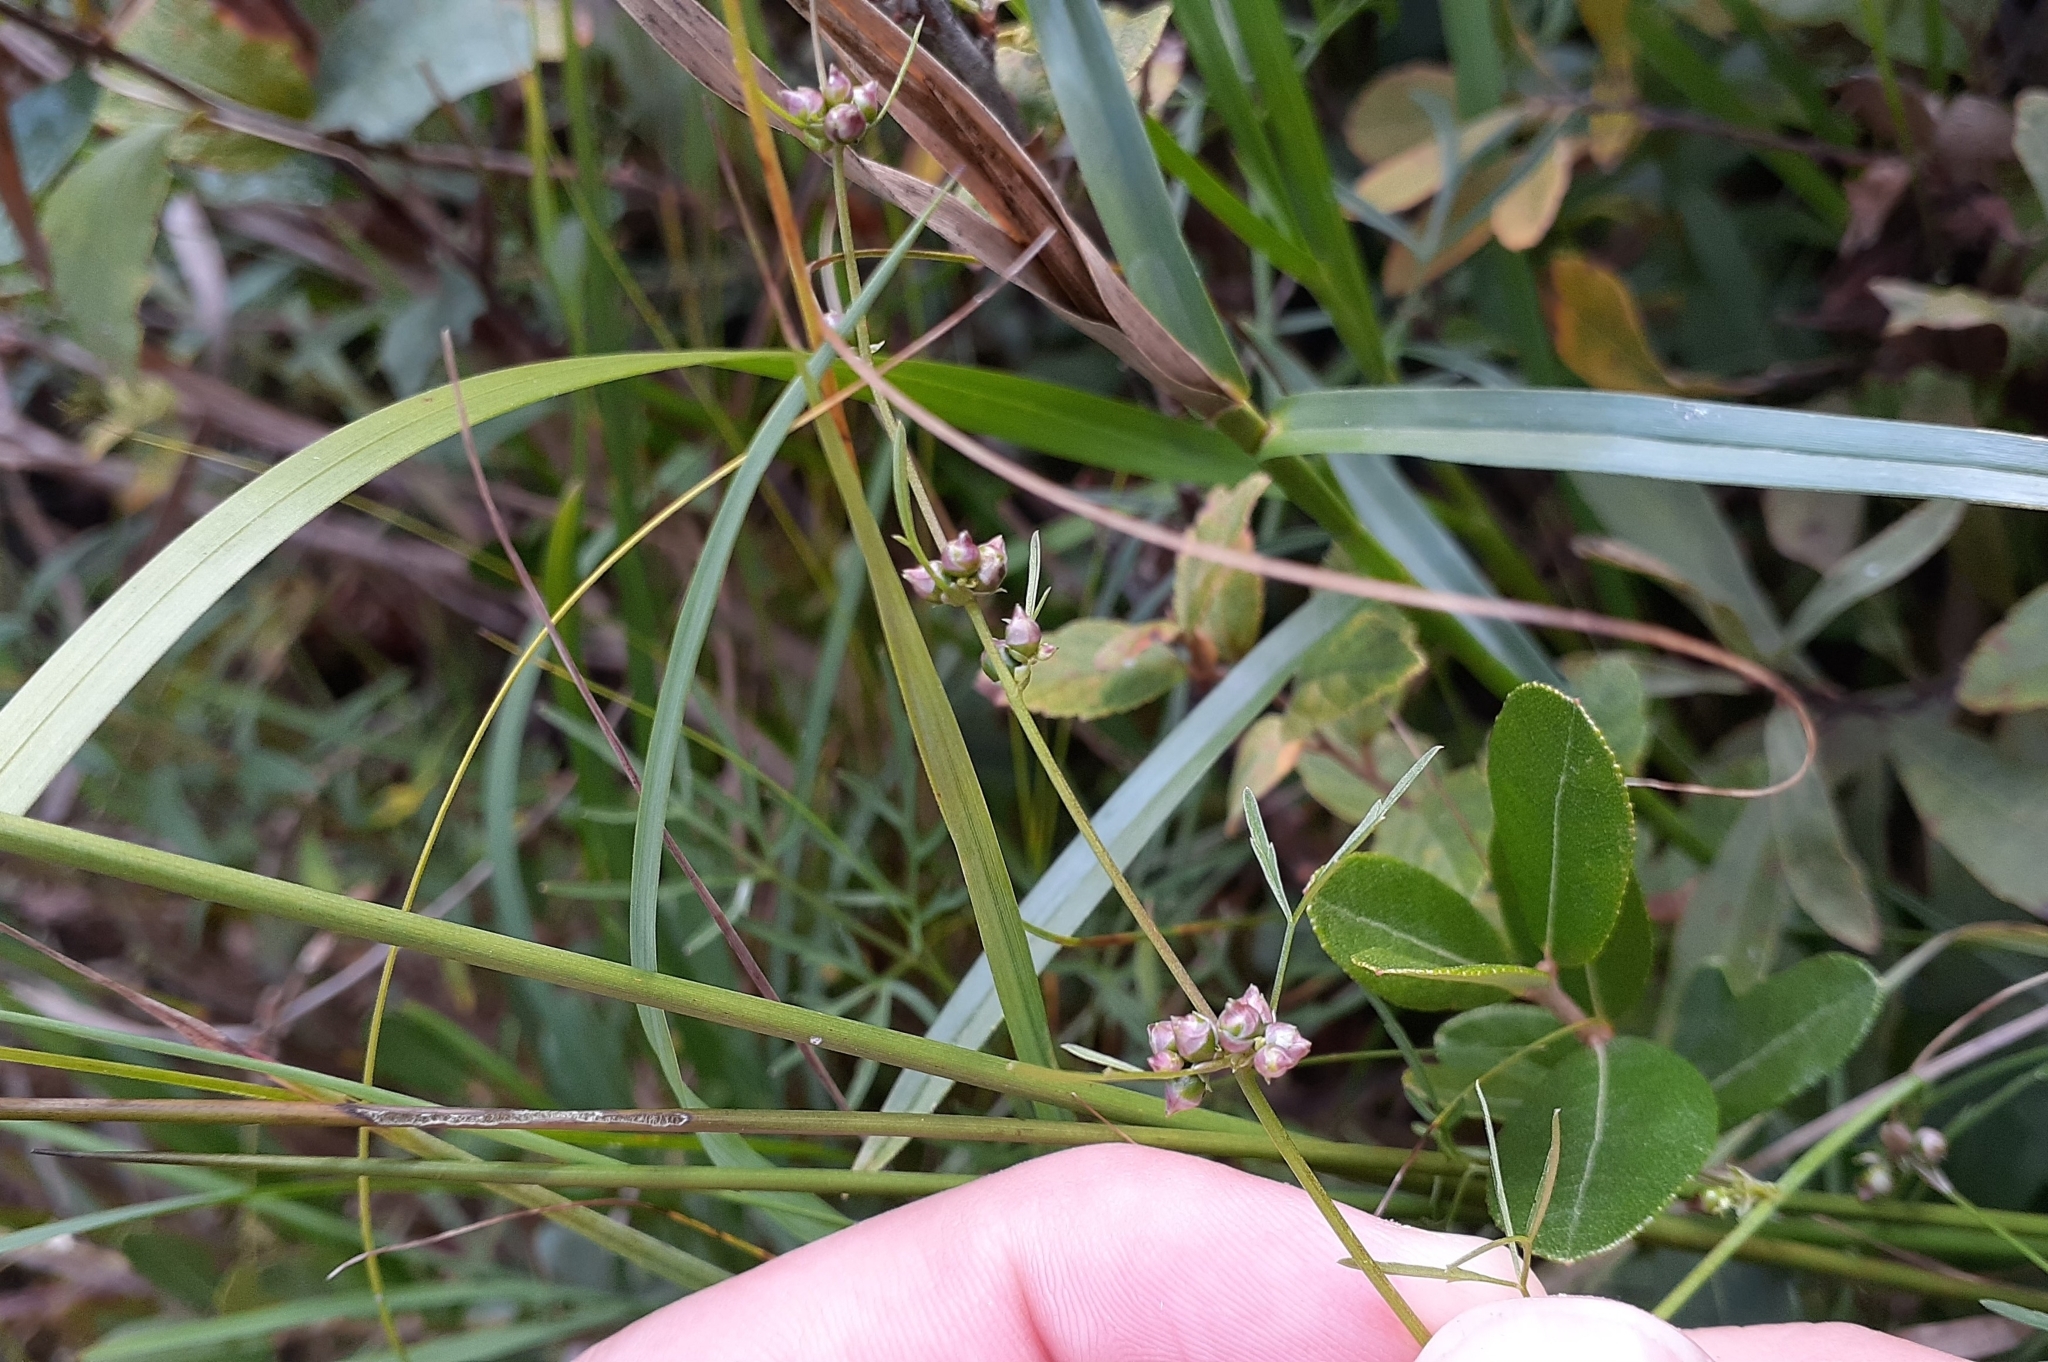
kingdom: Plantae
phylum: Tracheophyta
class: Magnoliopsida
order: Apiales
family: Apiaceae
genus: Cicuta
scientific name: Cicuta bulbifera
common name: Bulb-bearing water-hemlock
